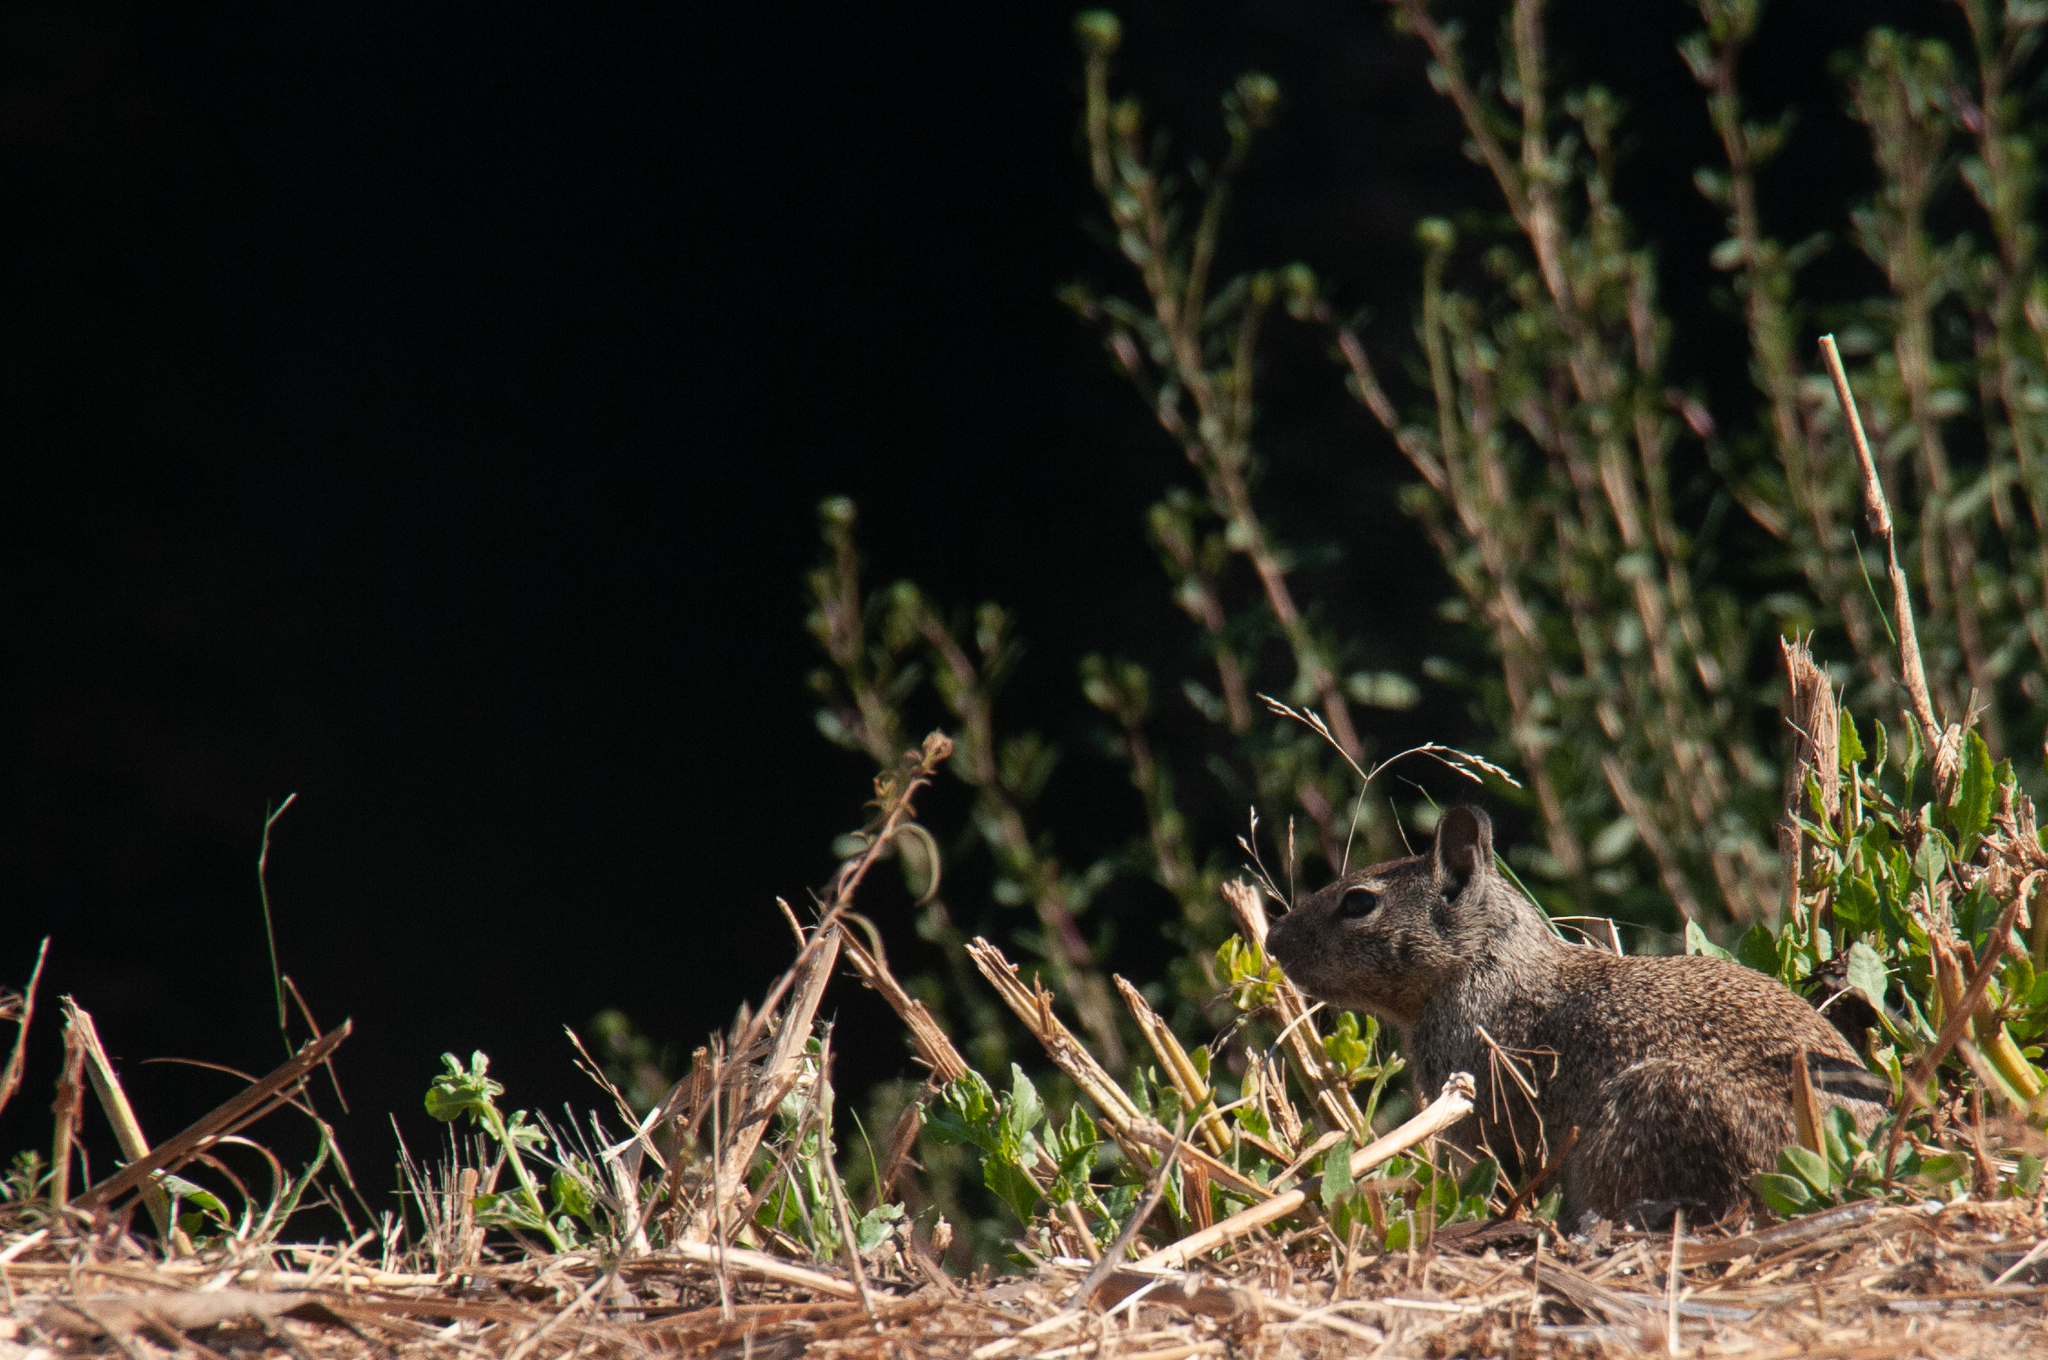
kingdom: Animalia
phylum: Chordata
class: Mammalia
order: Rodentia
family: Sciuridae
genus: Otospermophilus
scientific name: Otospermophilus beecheyi
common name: California ground squirrel
